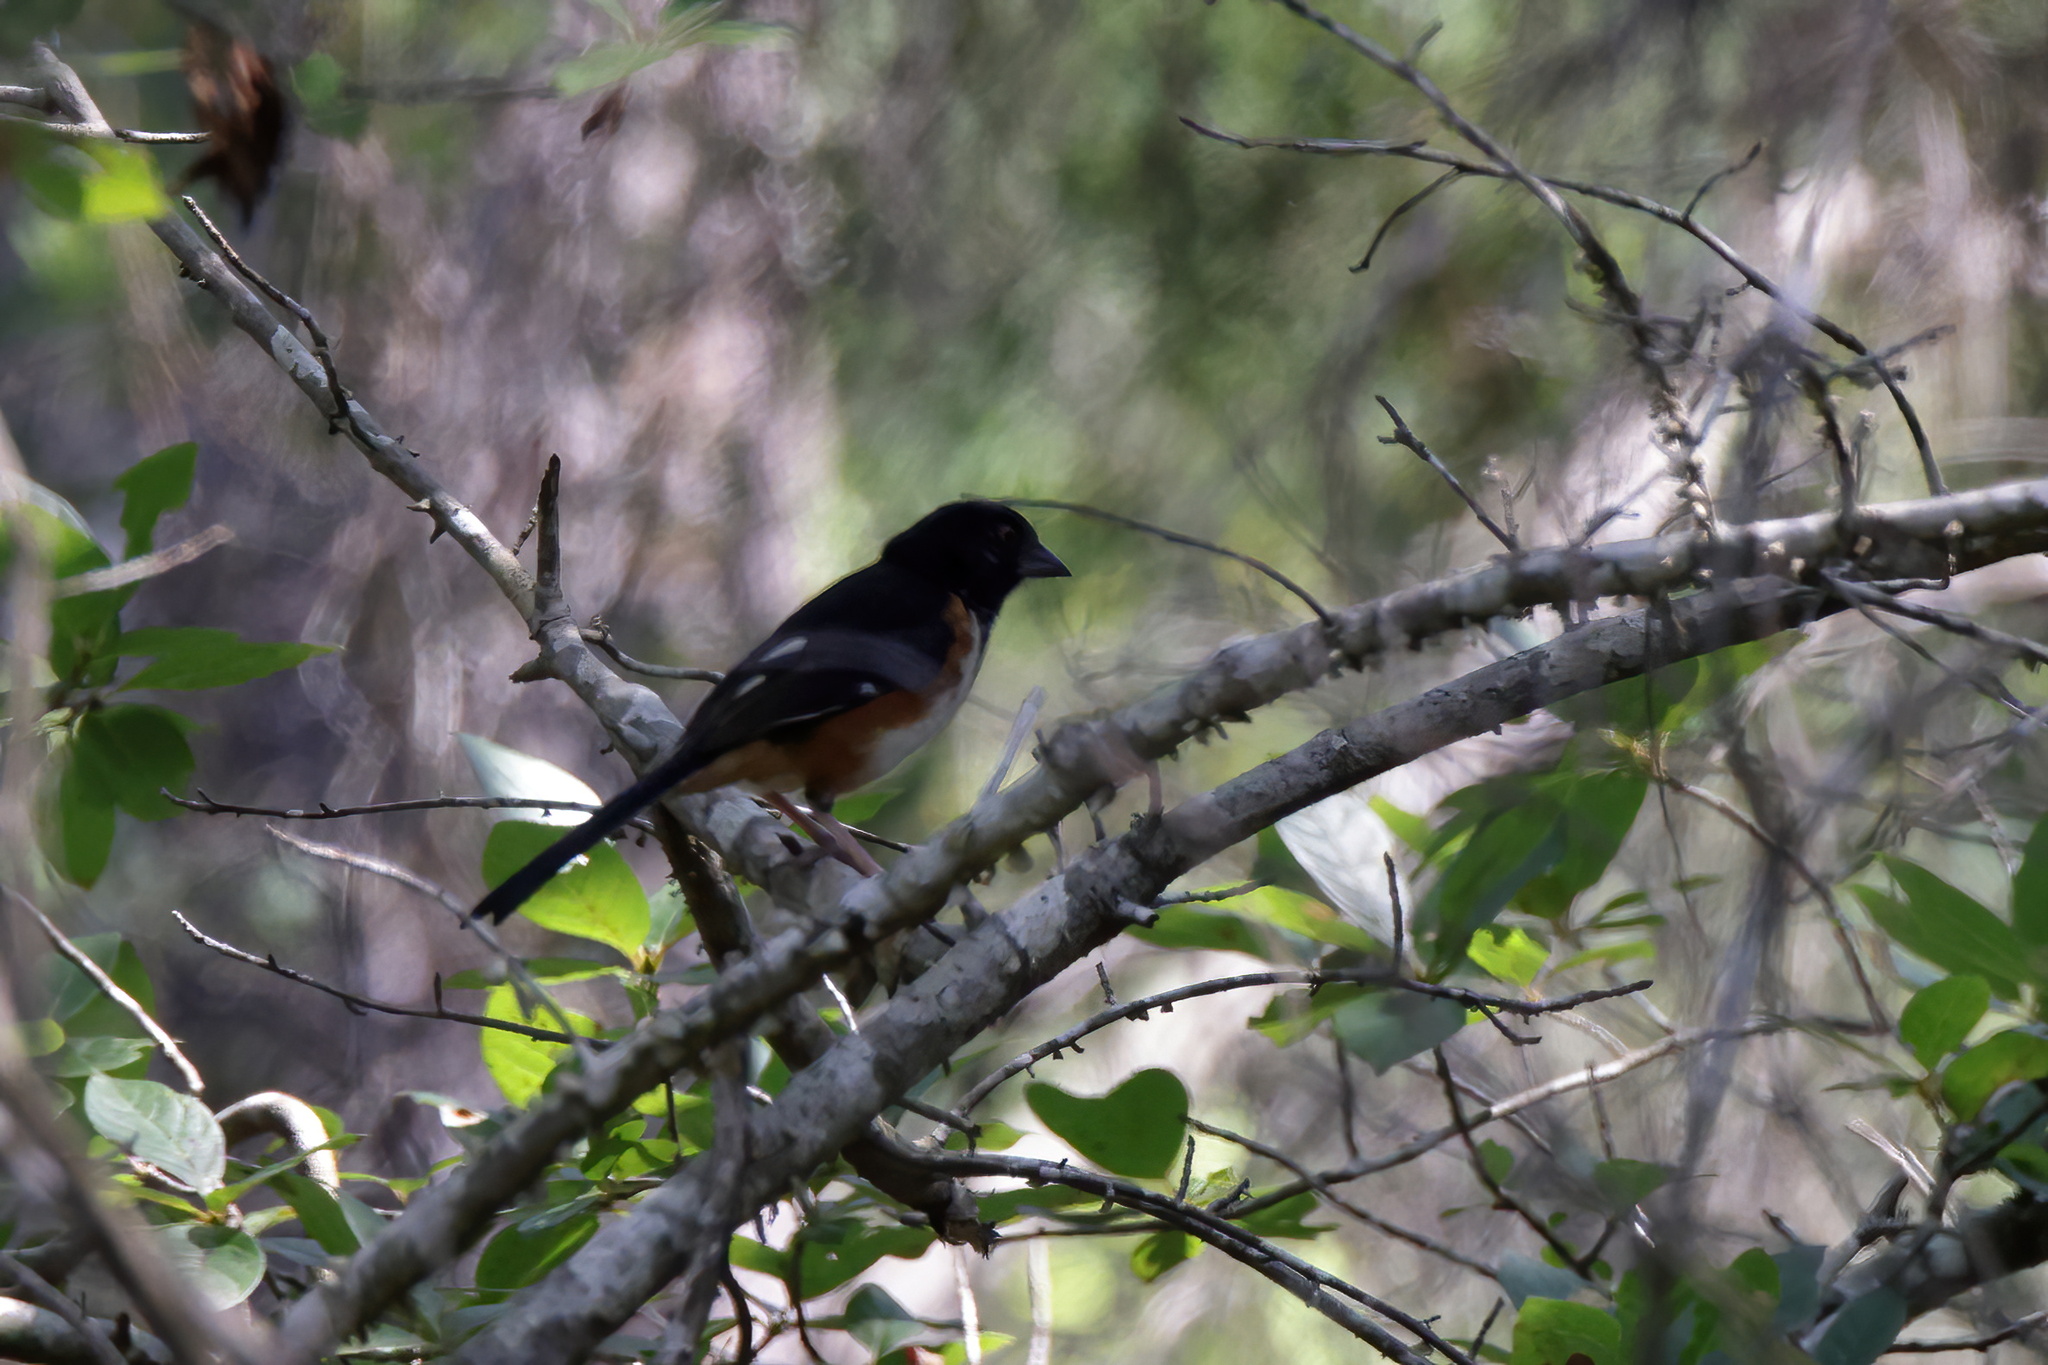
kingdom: Animalia
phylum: Chordata
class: Aves
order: Passeriformes
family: Passerellidae
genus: Pipilo
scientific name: Pipilo erythrophthalmus
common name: Eastern towhee
